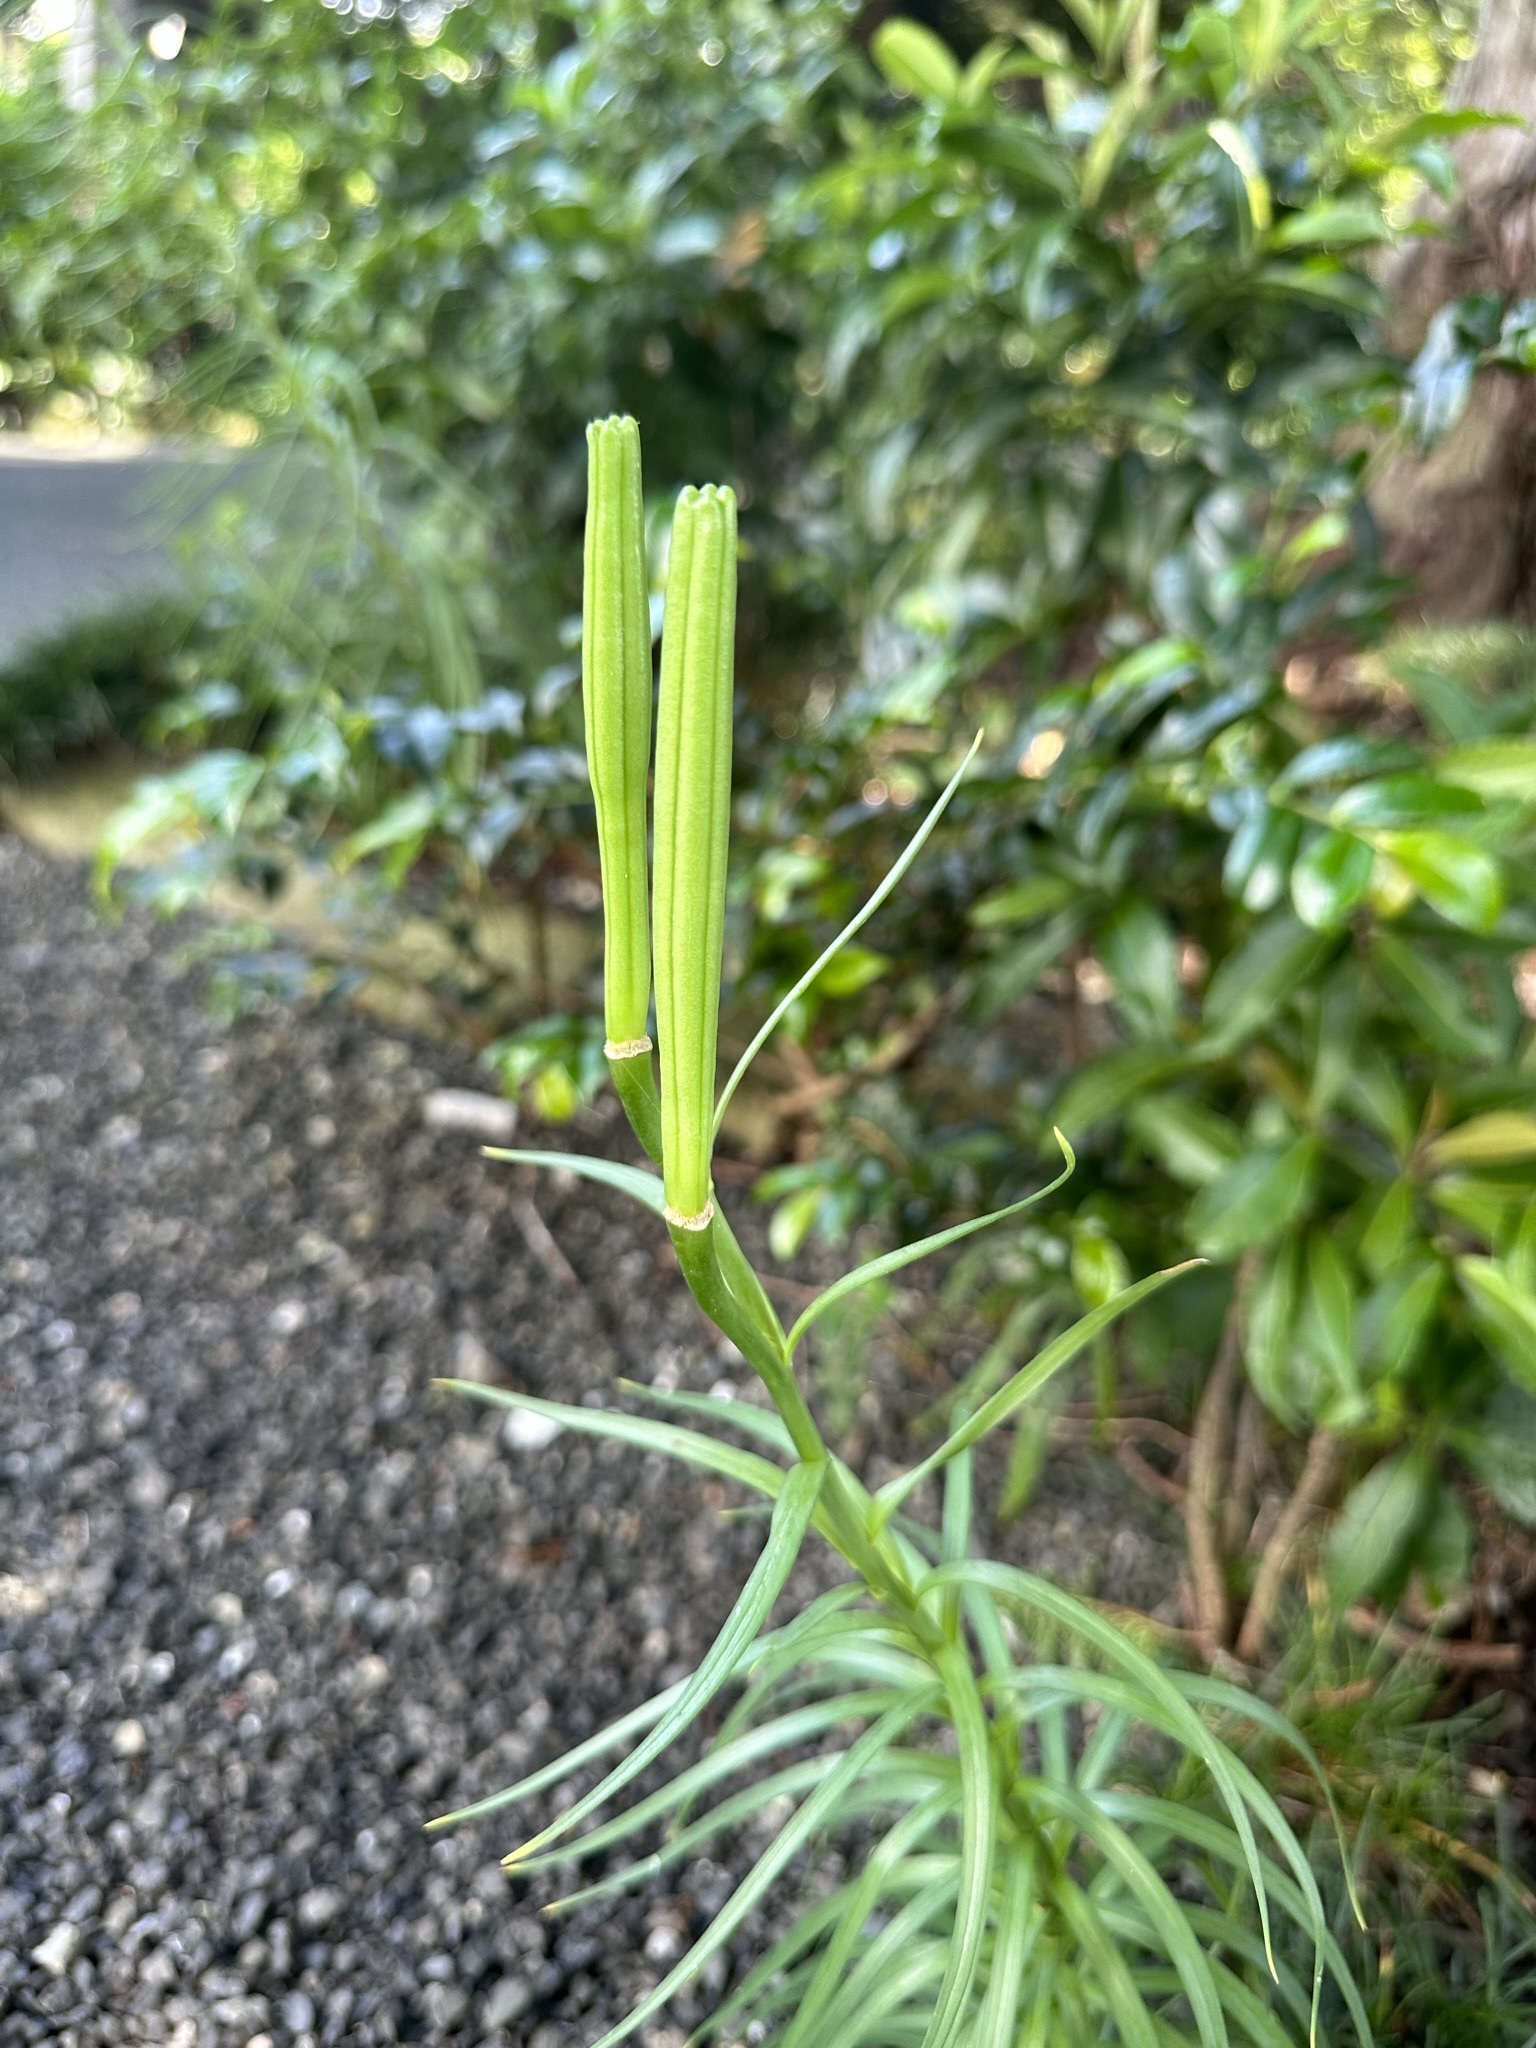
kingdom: Plantae
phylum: Tracheophyta
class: Liliopsida
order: Liliales
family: Liliaceae
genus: Lilium
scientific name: Lilium formosanum
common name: Formosa lily
